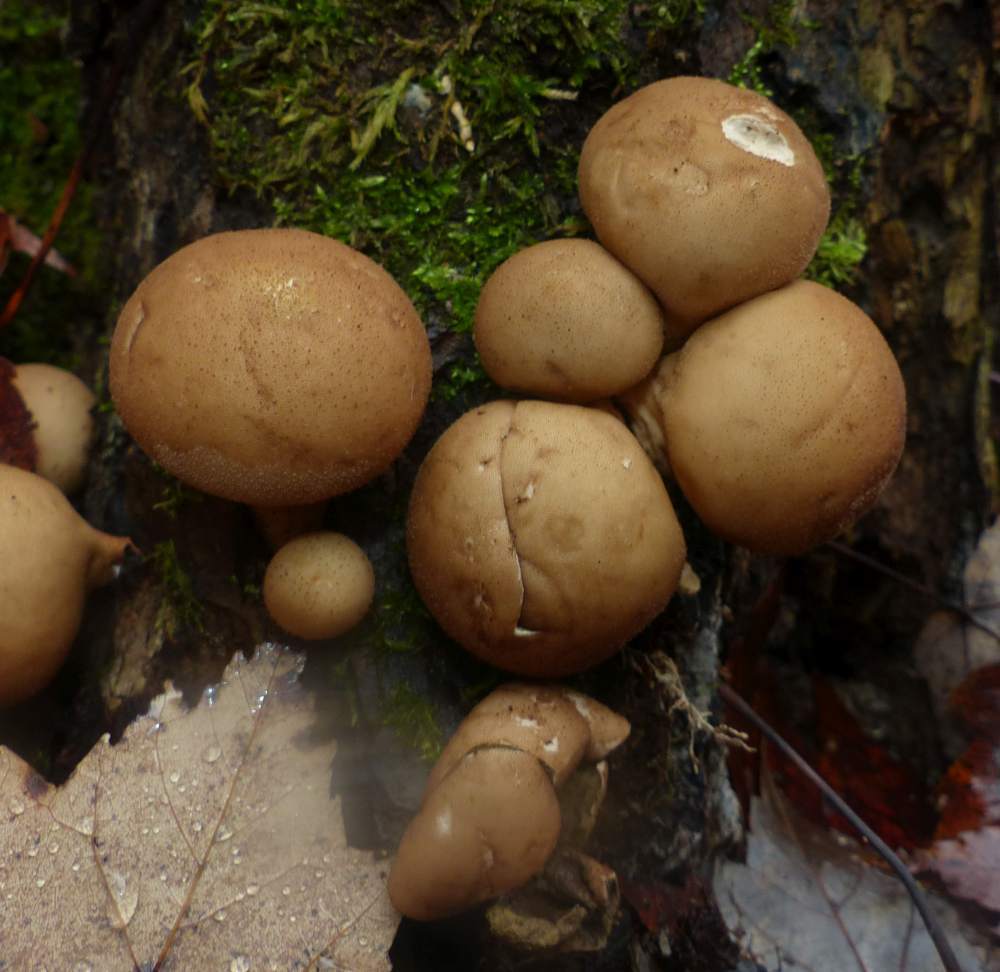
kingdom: Fungi
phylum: Basidiomycota
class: Agaricomycetes
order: Agaricales
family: Lycoperdaceae
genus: Apioperdon
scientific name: Apioperdon pyriforme
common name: Pear-shaped puffball
